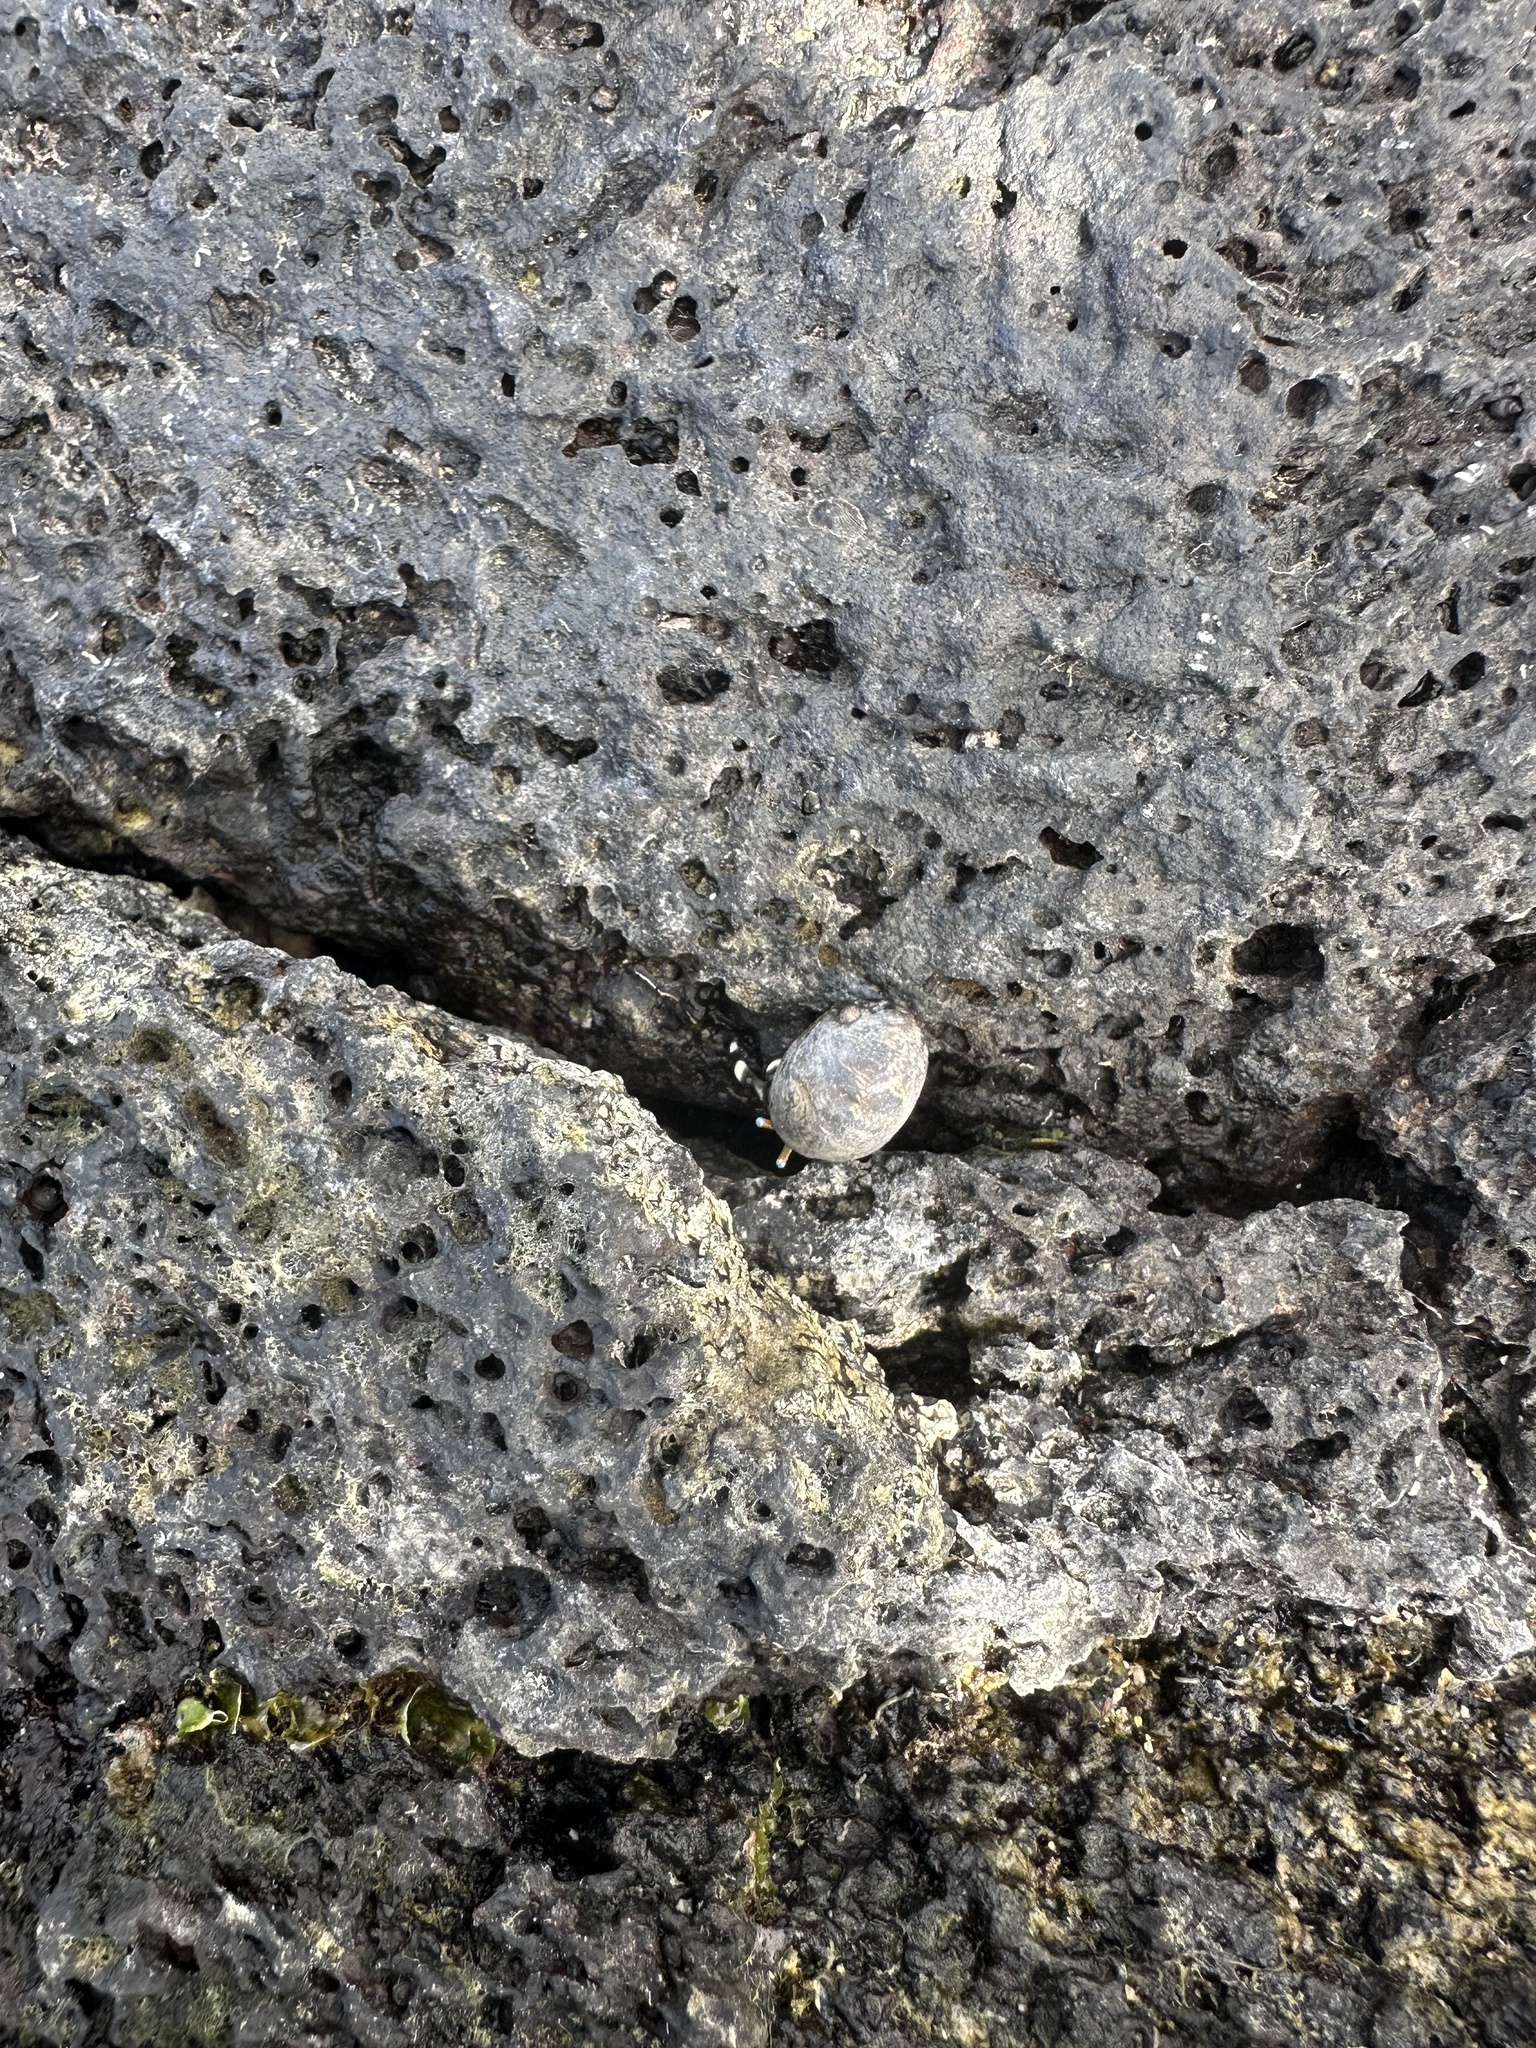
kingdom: Animalia
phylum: Arthropoda
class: Malacostraca
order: Decapoda
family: Diogenidae
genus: Calcinus
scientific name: Calcinus seurati
